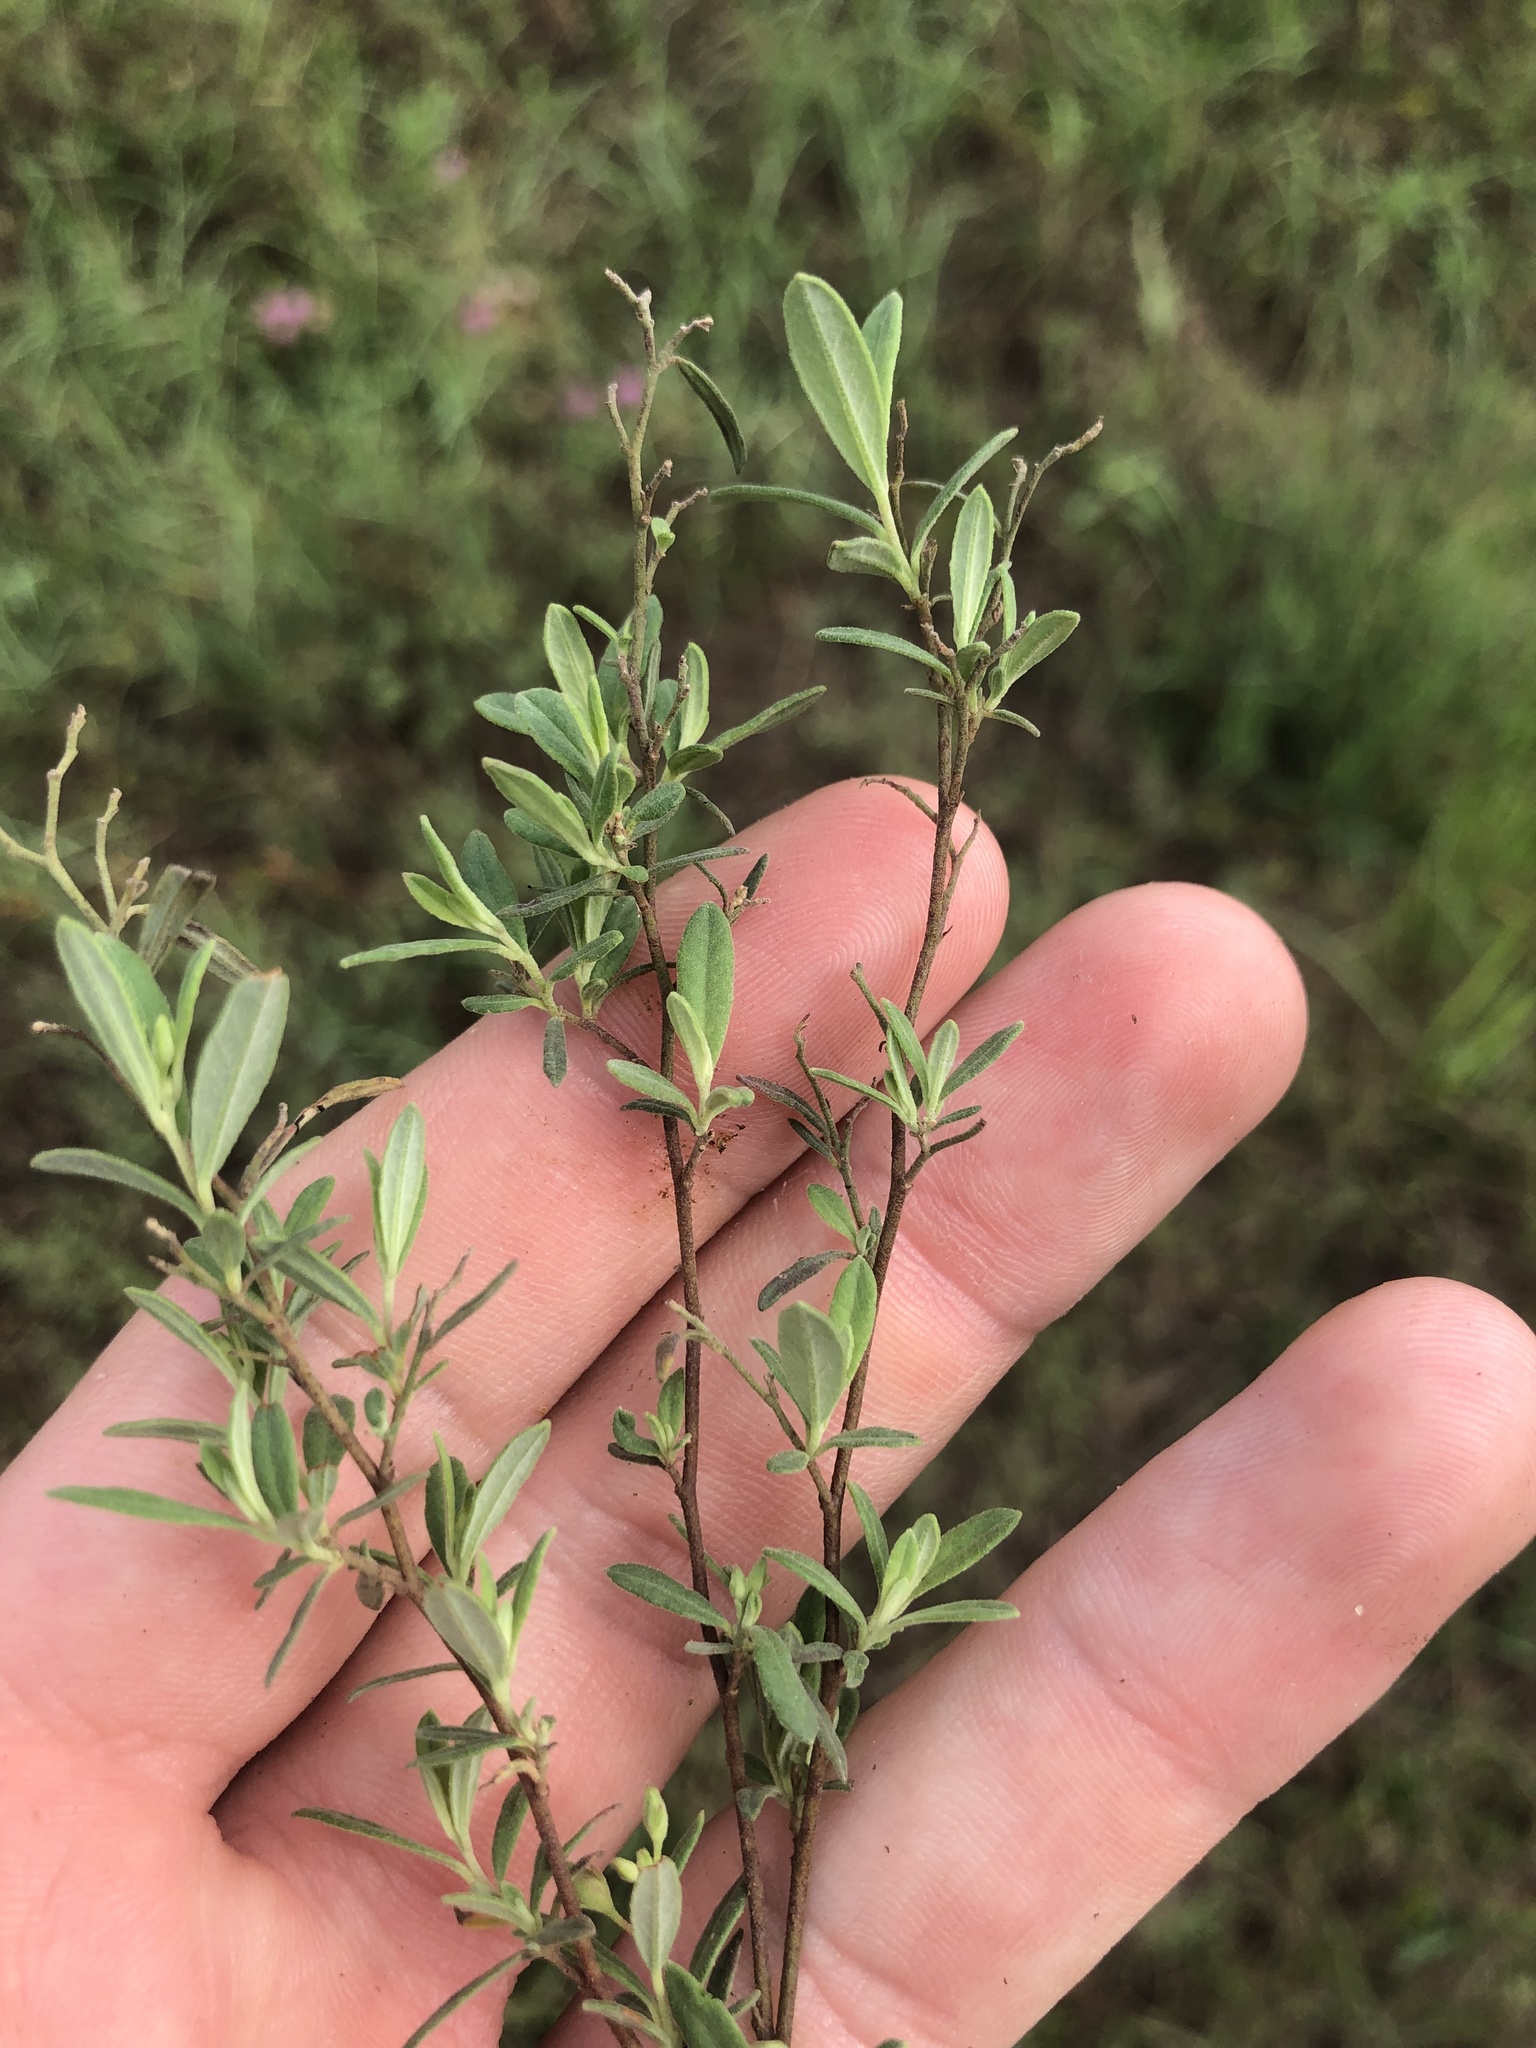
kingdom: Plantae
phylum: Tracheophyta
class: Magnoliopsida
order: Malvales
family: Cistaceae
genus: Crocanthemum
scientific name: Crocanthemum georgianum
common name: Georgia frostweed
